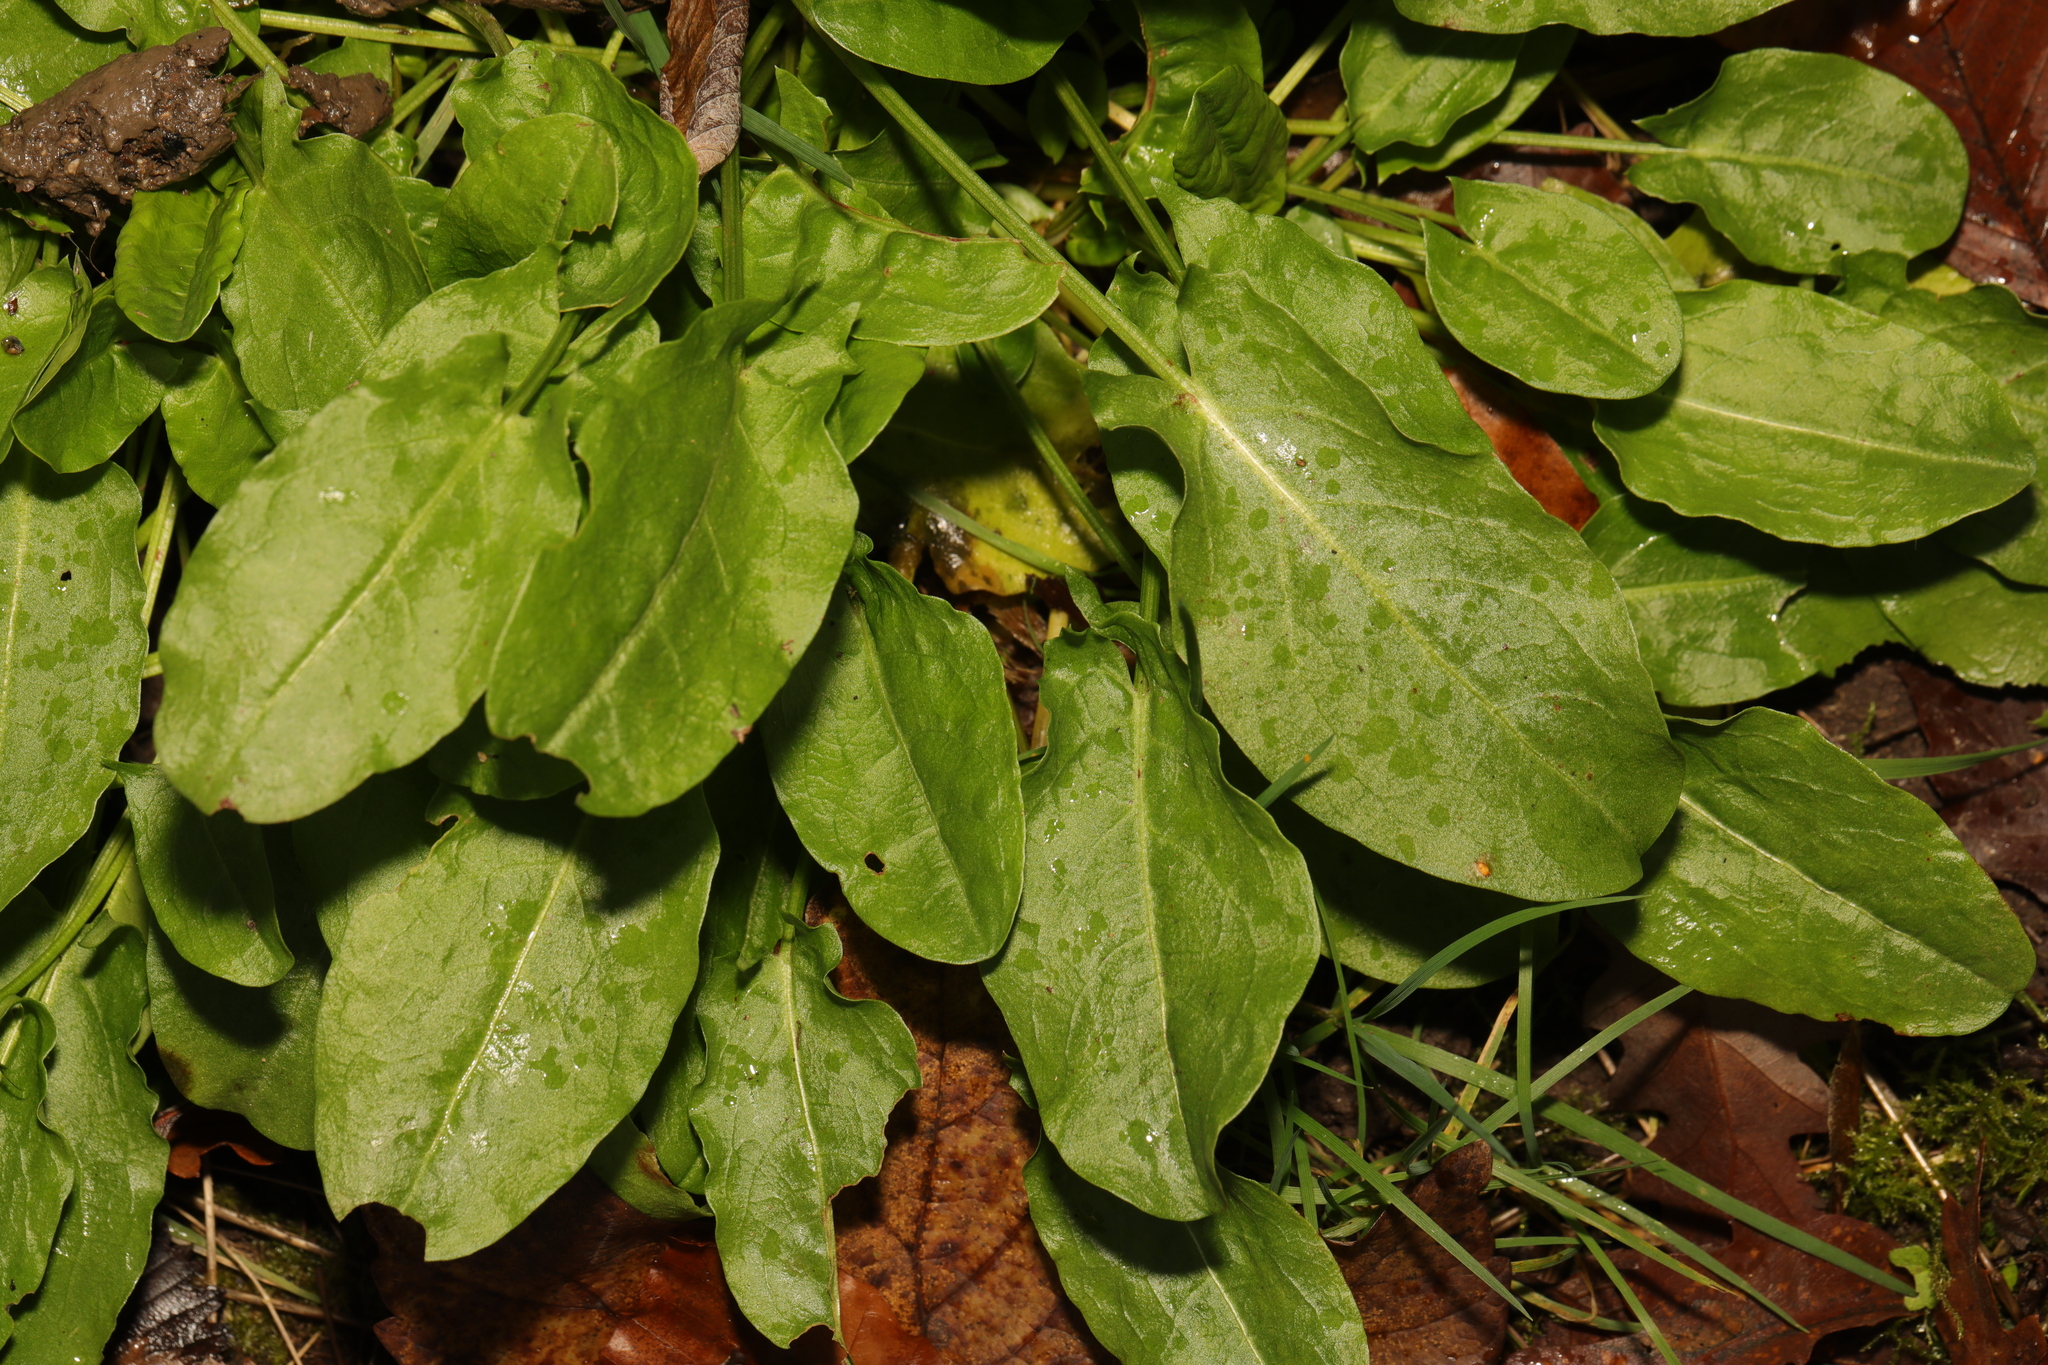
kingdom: Plantae
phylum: Tracheophyta
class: Magnoliopsida
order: Caryophyllales
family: Polygonaceae
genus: Rumex
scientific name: Rumex acetosa
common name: Garden sorrel
